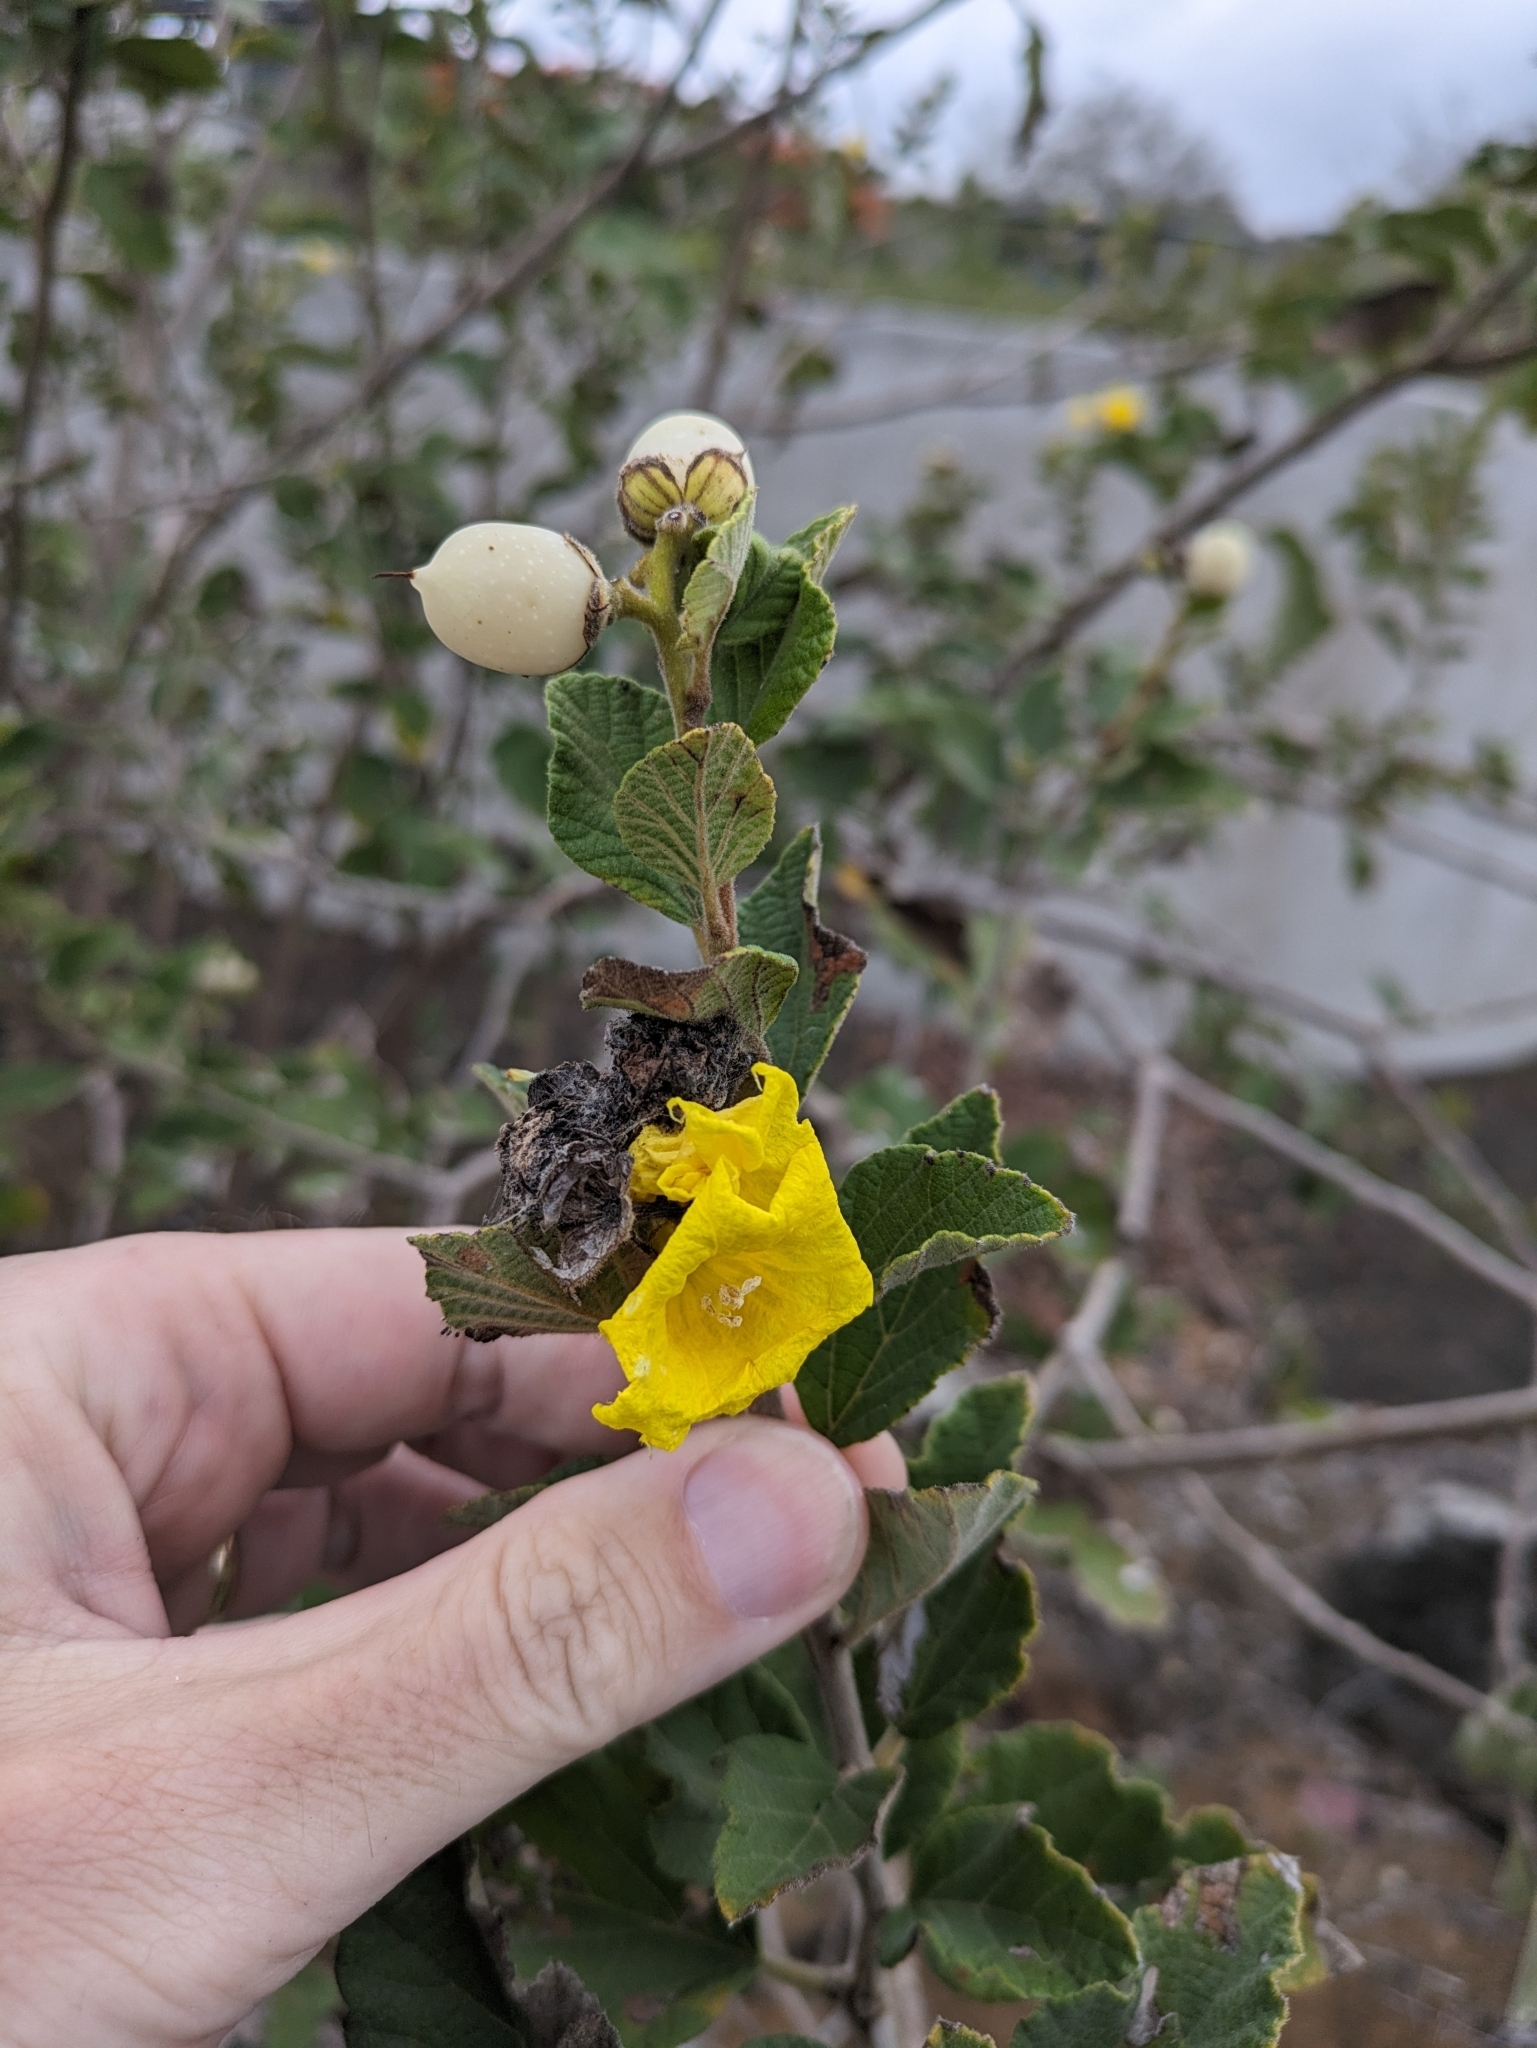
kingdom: Plantae
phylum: Tracheophyta
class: Magnoliopsida
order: Boraginales
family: Cordiaceae
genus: Cordia
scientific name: Cordia lutea
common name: Yellow geiger
